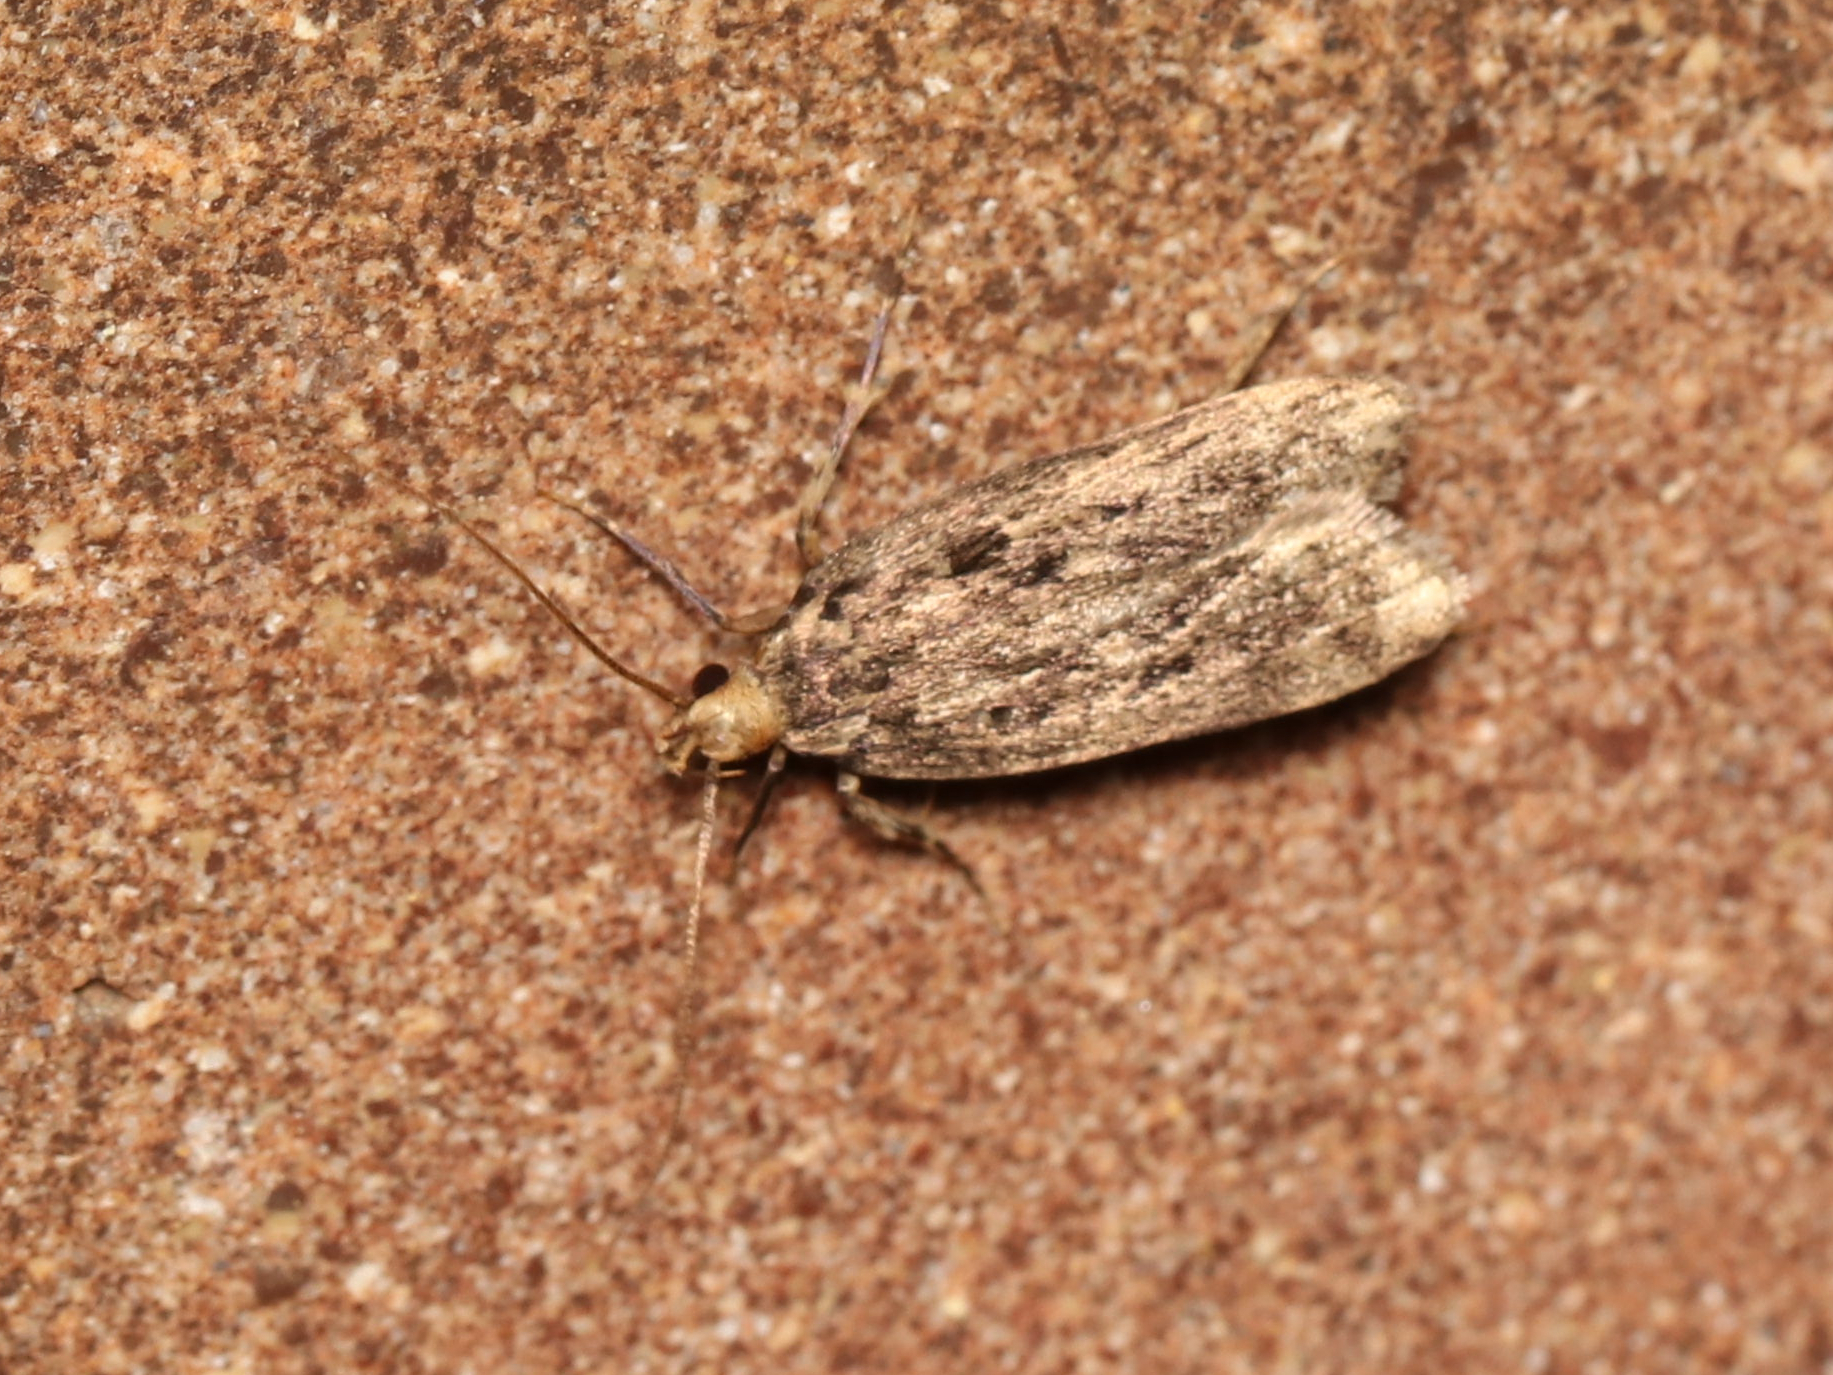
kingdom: Animalia
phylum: Arthropoda
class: Insecta
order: Lepidoptera
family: Lecithoceridae
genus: Martyringa
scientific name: Martyringa xeraula
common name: Himalayan grain moth
